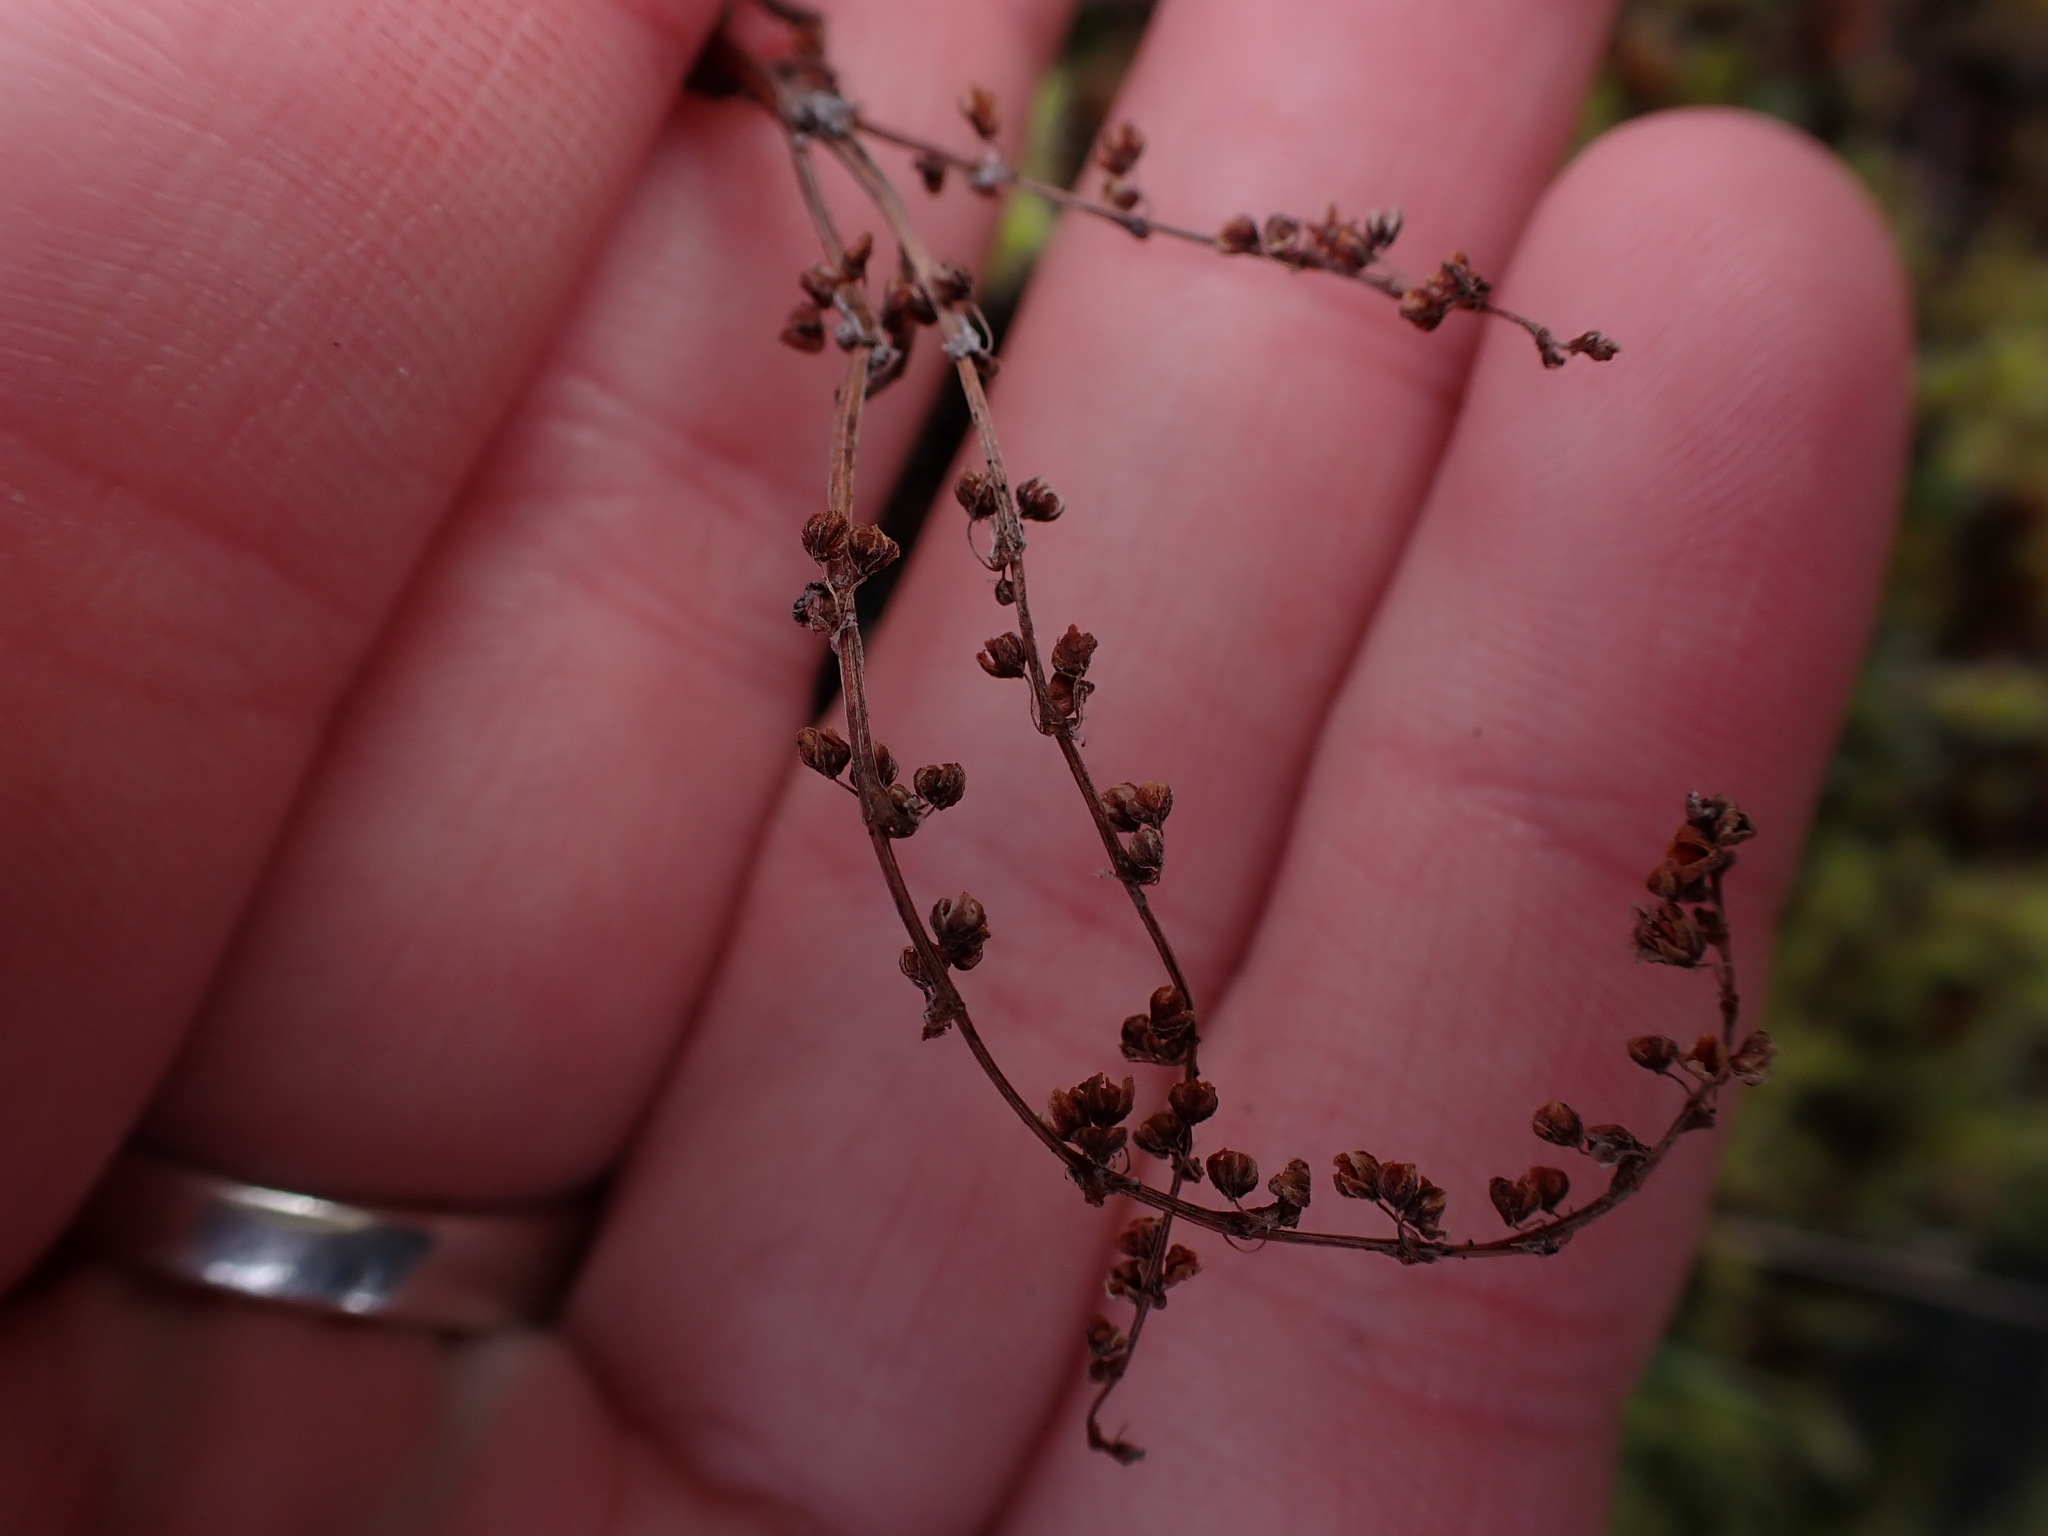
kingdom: Plantae
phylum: Tracheophyta
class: Magnoliopsida
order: Caryophyllales
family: Polygonaceae
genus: Rumex
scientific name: Rumex acetosella
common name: Common sheep sorrel
